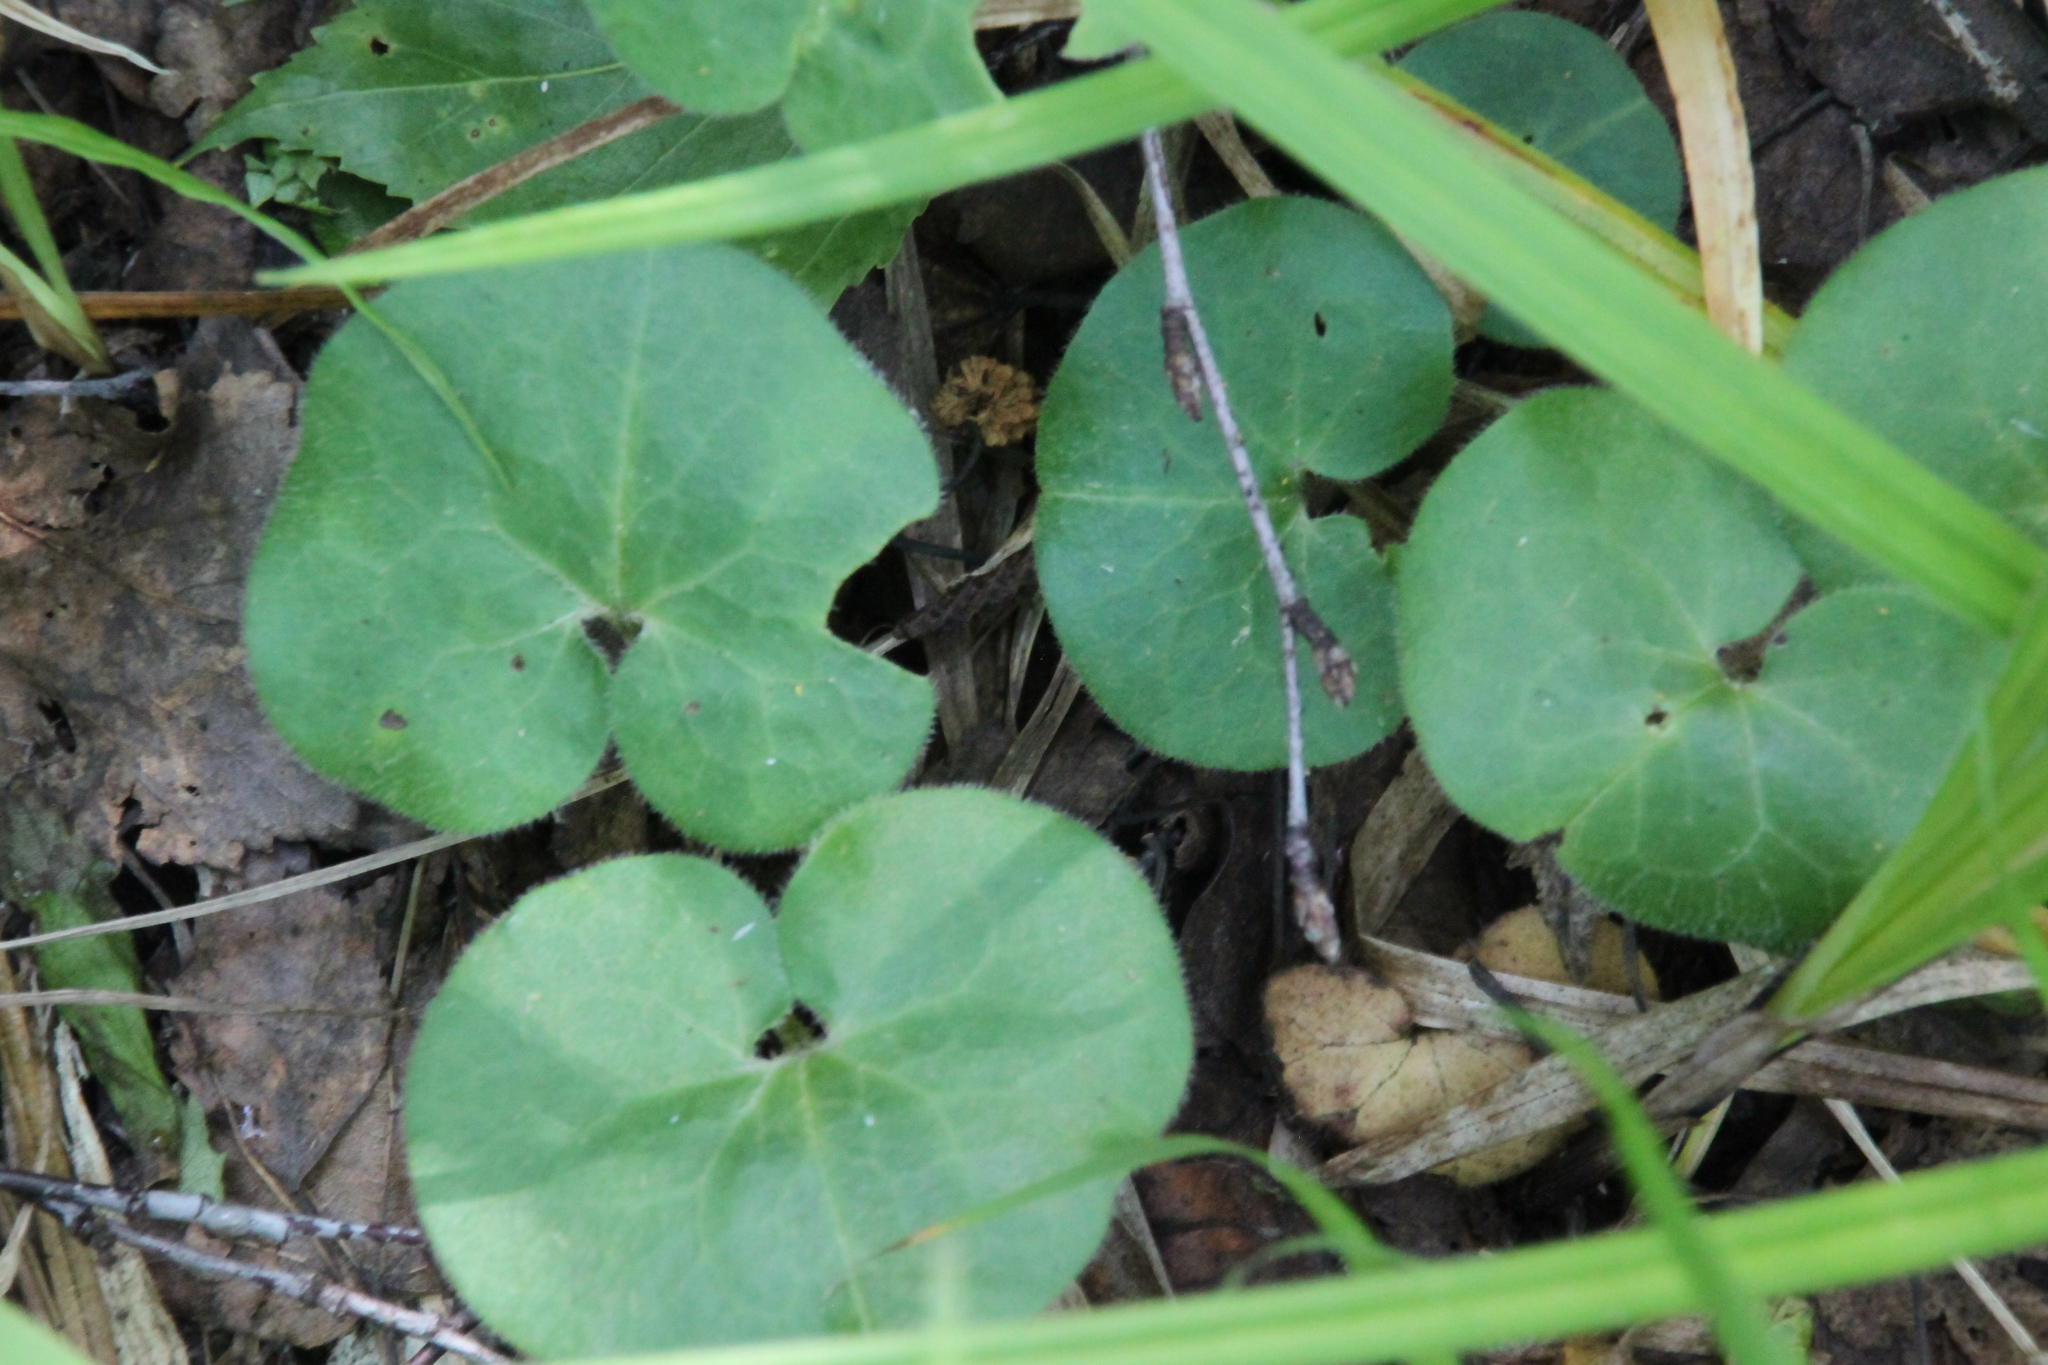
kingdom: Plantae
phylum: Tracheophyta
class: Magnoliopsida
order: Piperales
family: Aristolochiaceae
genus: Asarum
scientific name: Asarum europaeum
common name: Asarabacca
